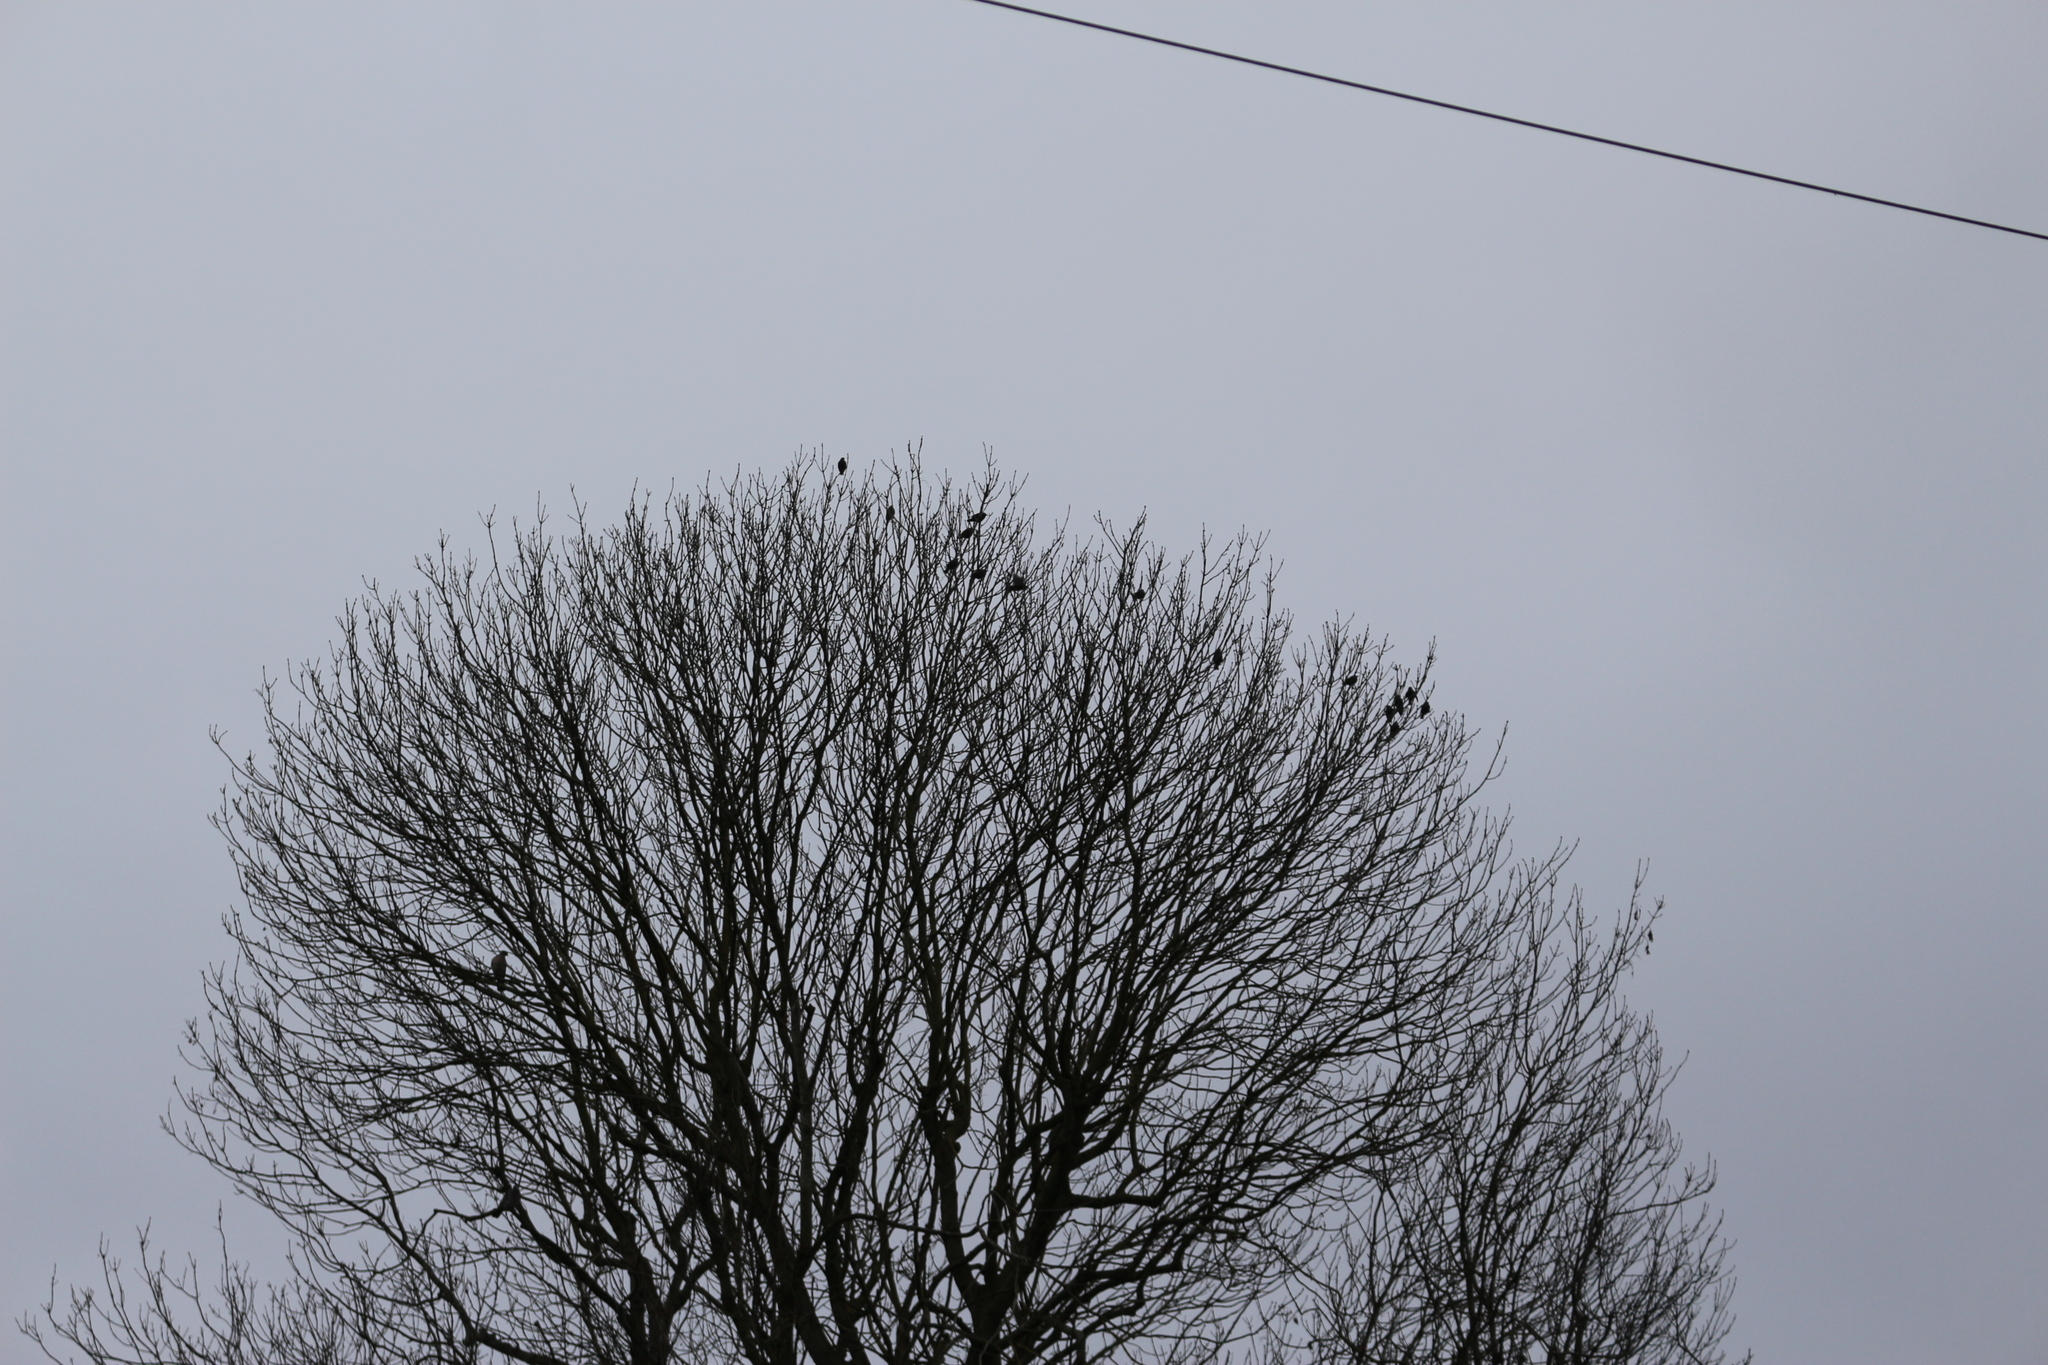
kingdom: Animalia
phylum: Chordata
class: Aves
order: Passeriformes
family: Sturnidae
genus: Sturnus
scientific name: Sturnus vulgaris
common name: Common starling
